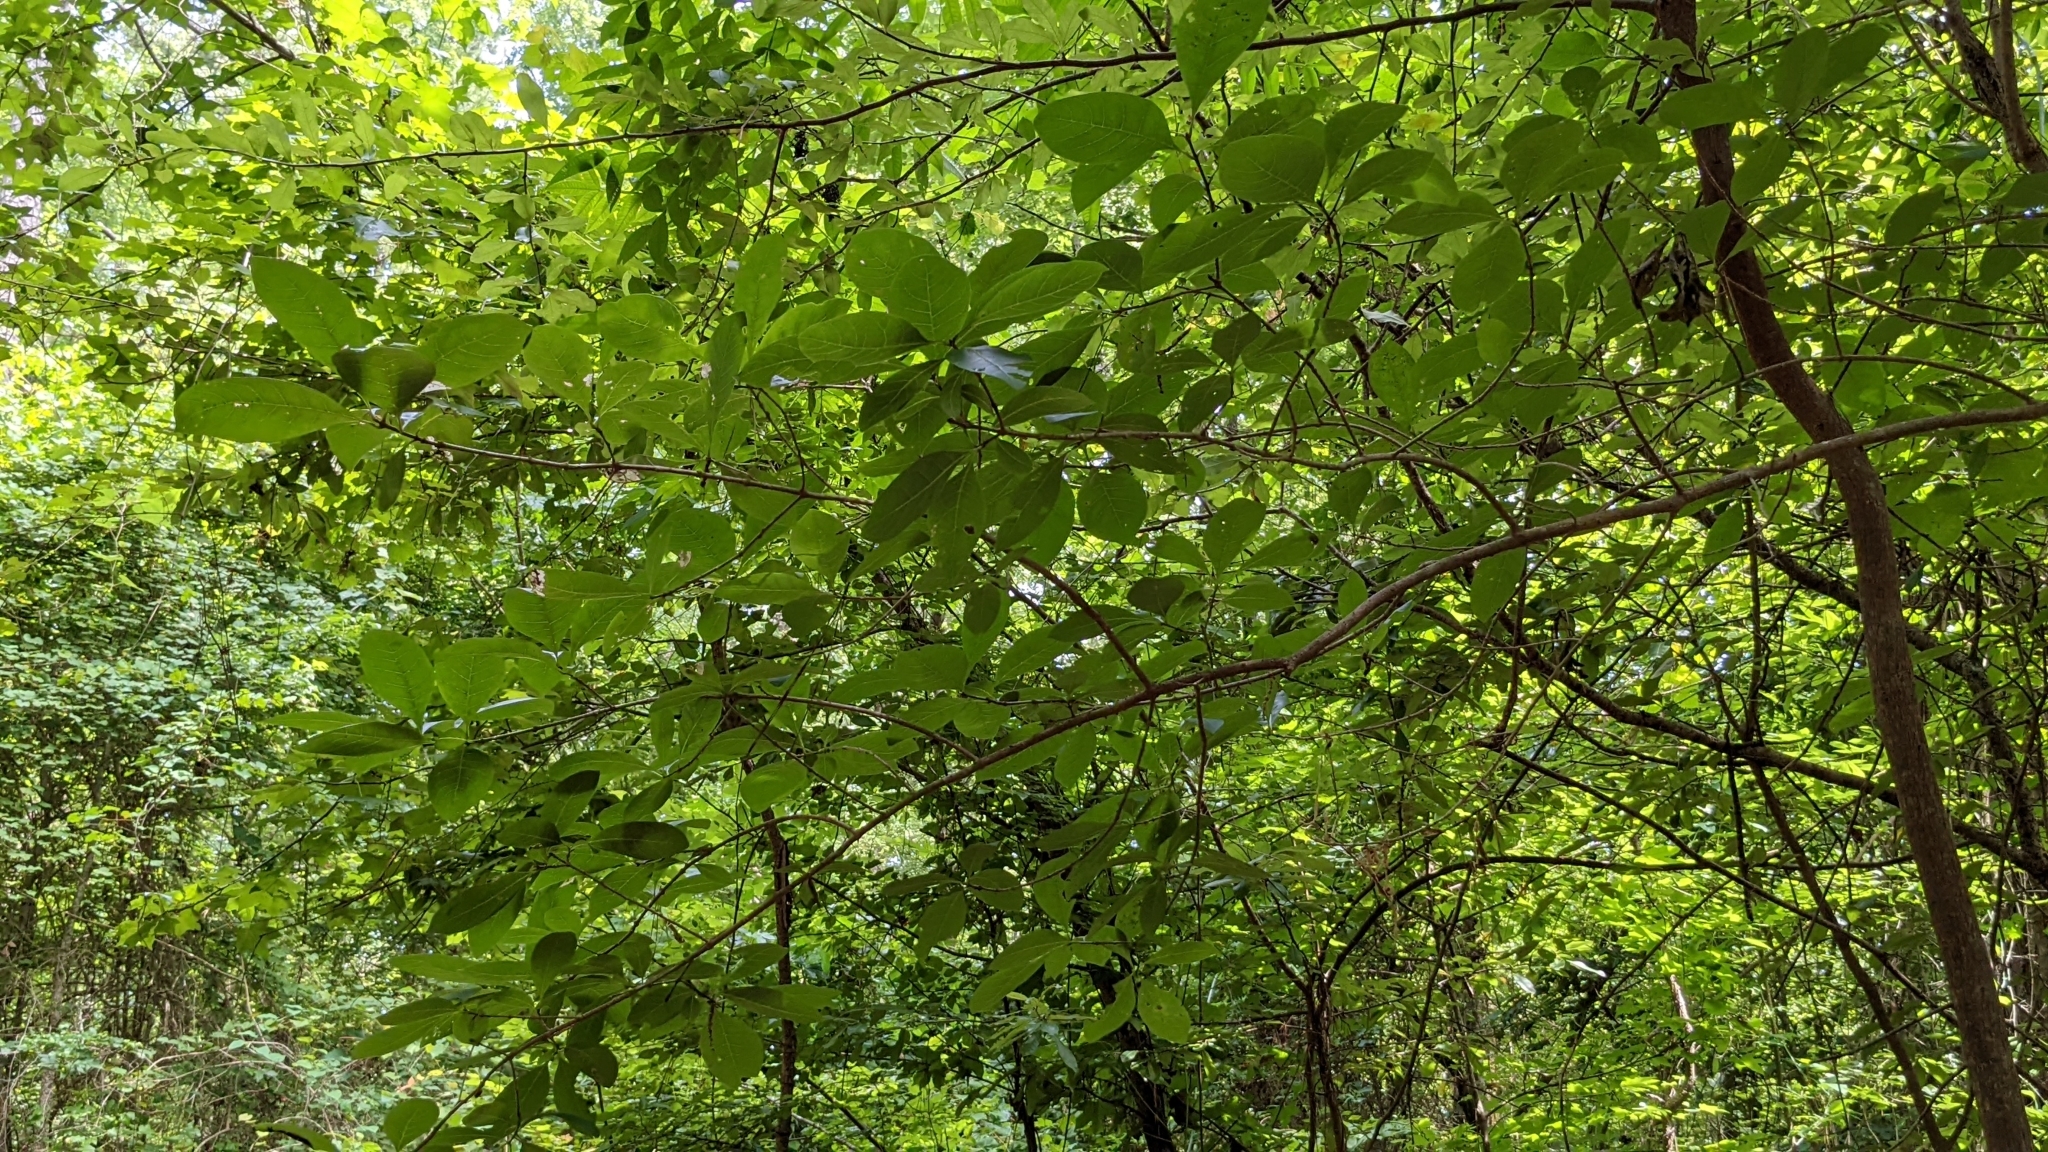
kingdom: Plantae
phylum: Tracheophyta
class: Magnoliopsida
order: Lamiales
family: Oleaceae
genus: Chionanthus
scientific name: Chionanthus virginicus
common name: American fringetree
